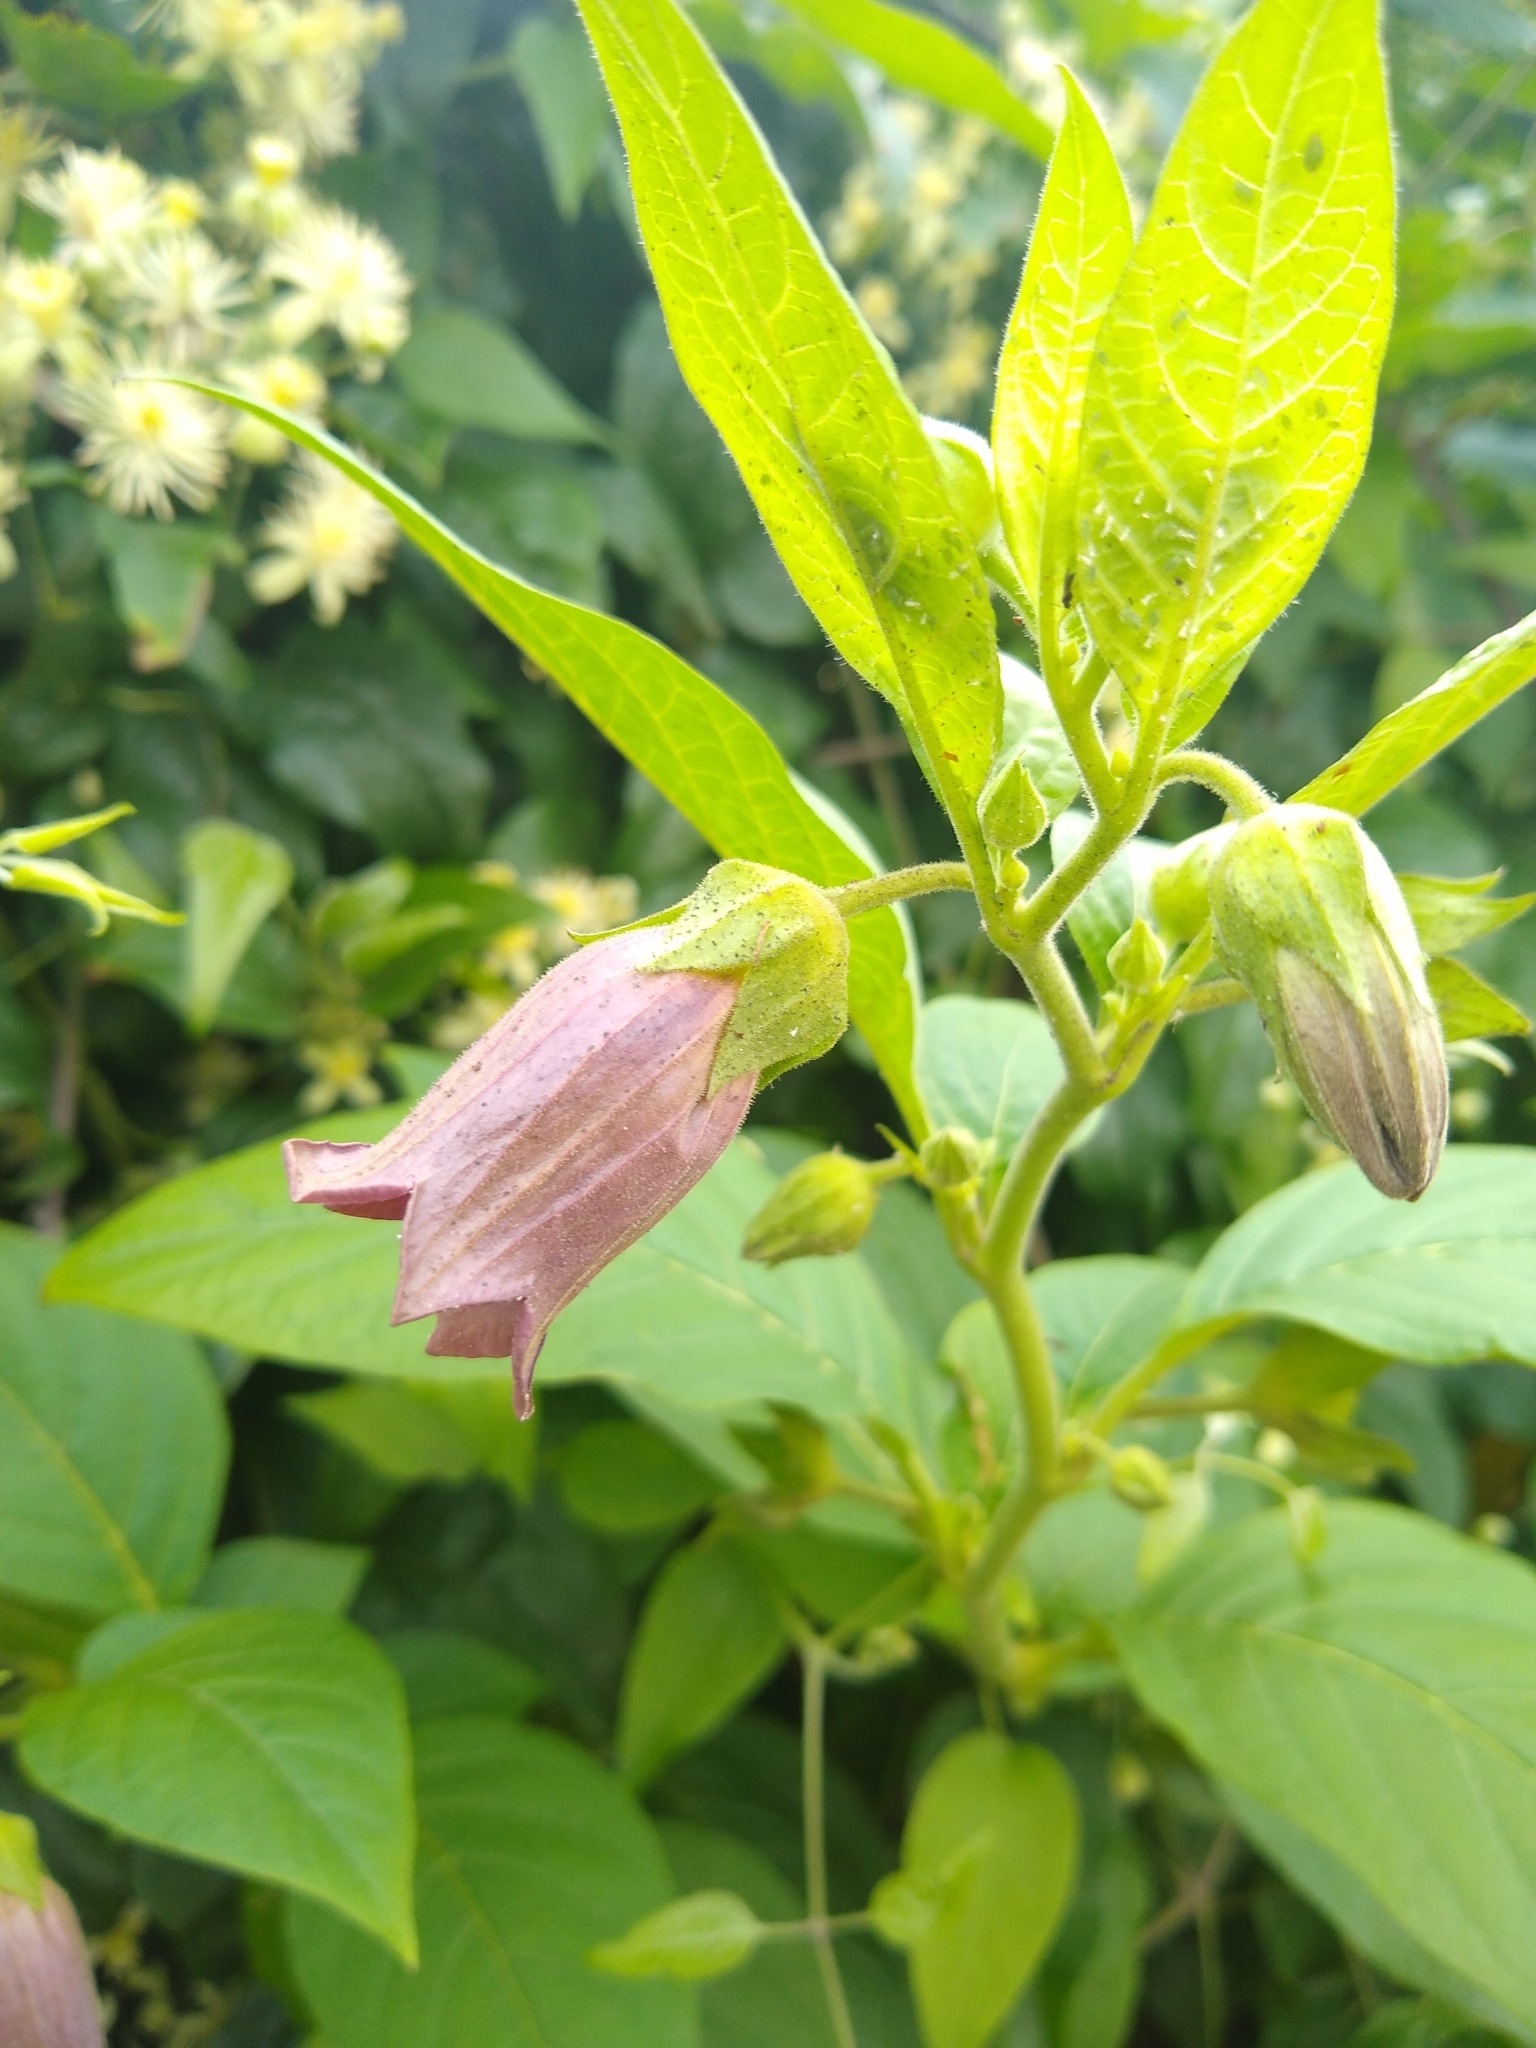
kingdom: Plantae
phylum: Tracheophyta
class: Magnoliopsida
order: Solanales
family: Solanaceae
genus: Atropa
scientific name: Atropa belladonna
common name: Deadly nightshade
